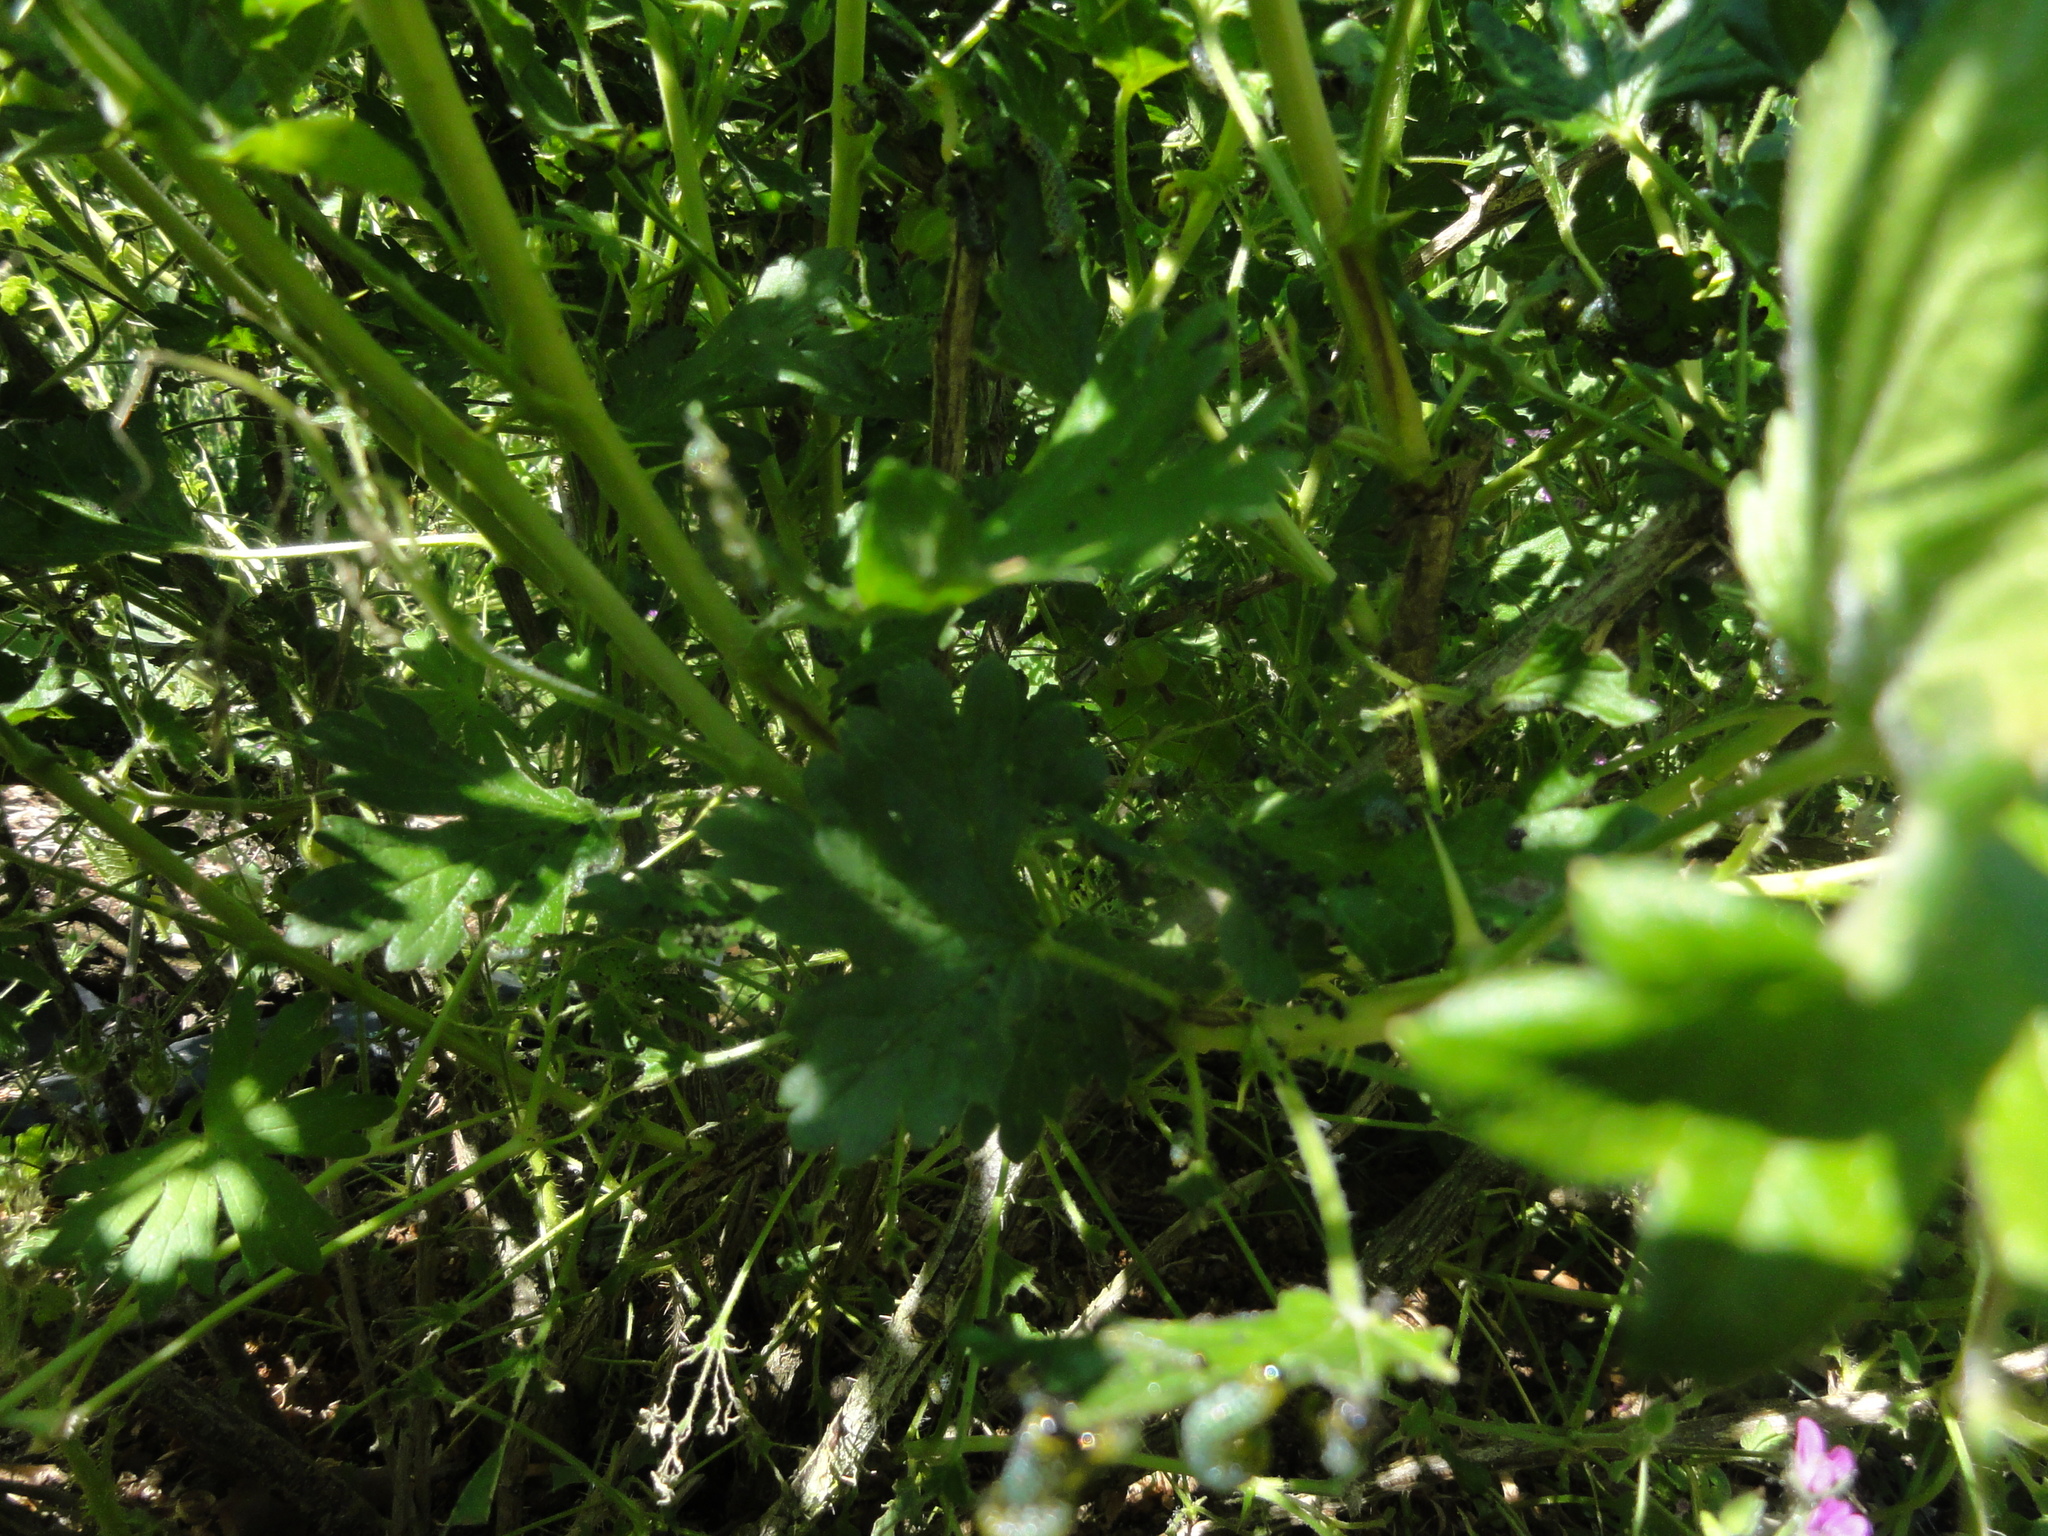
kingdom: Animalia
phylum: Arthropoda
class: Insecta
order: Hymenoptera
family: Tenthredinidae
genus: Nematus
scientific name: Nematus ribesii
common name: Imported currantworm
